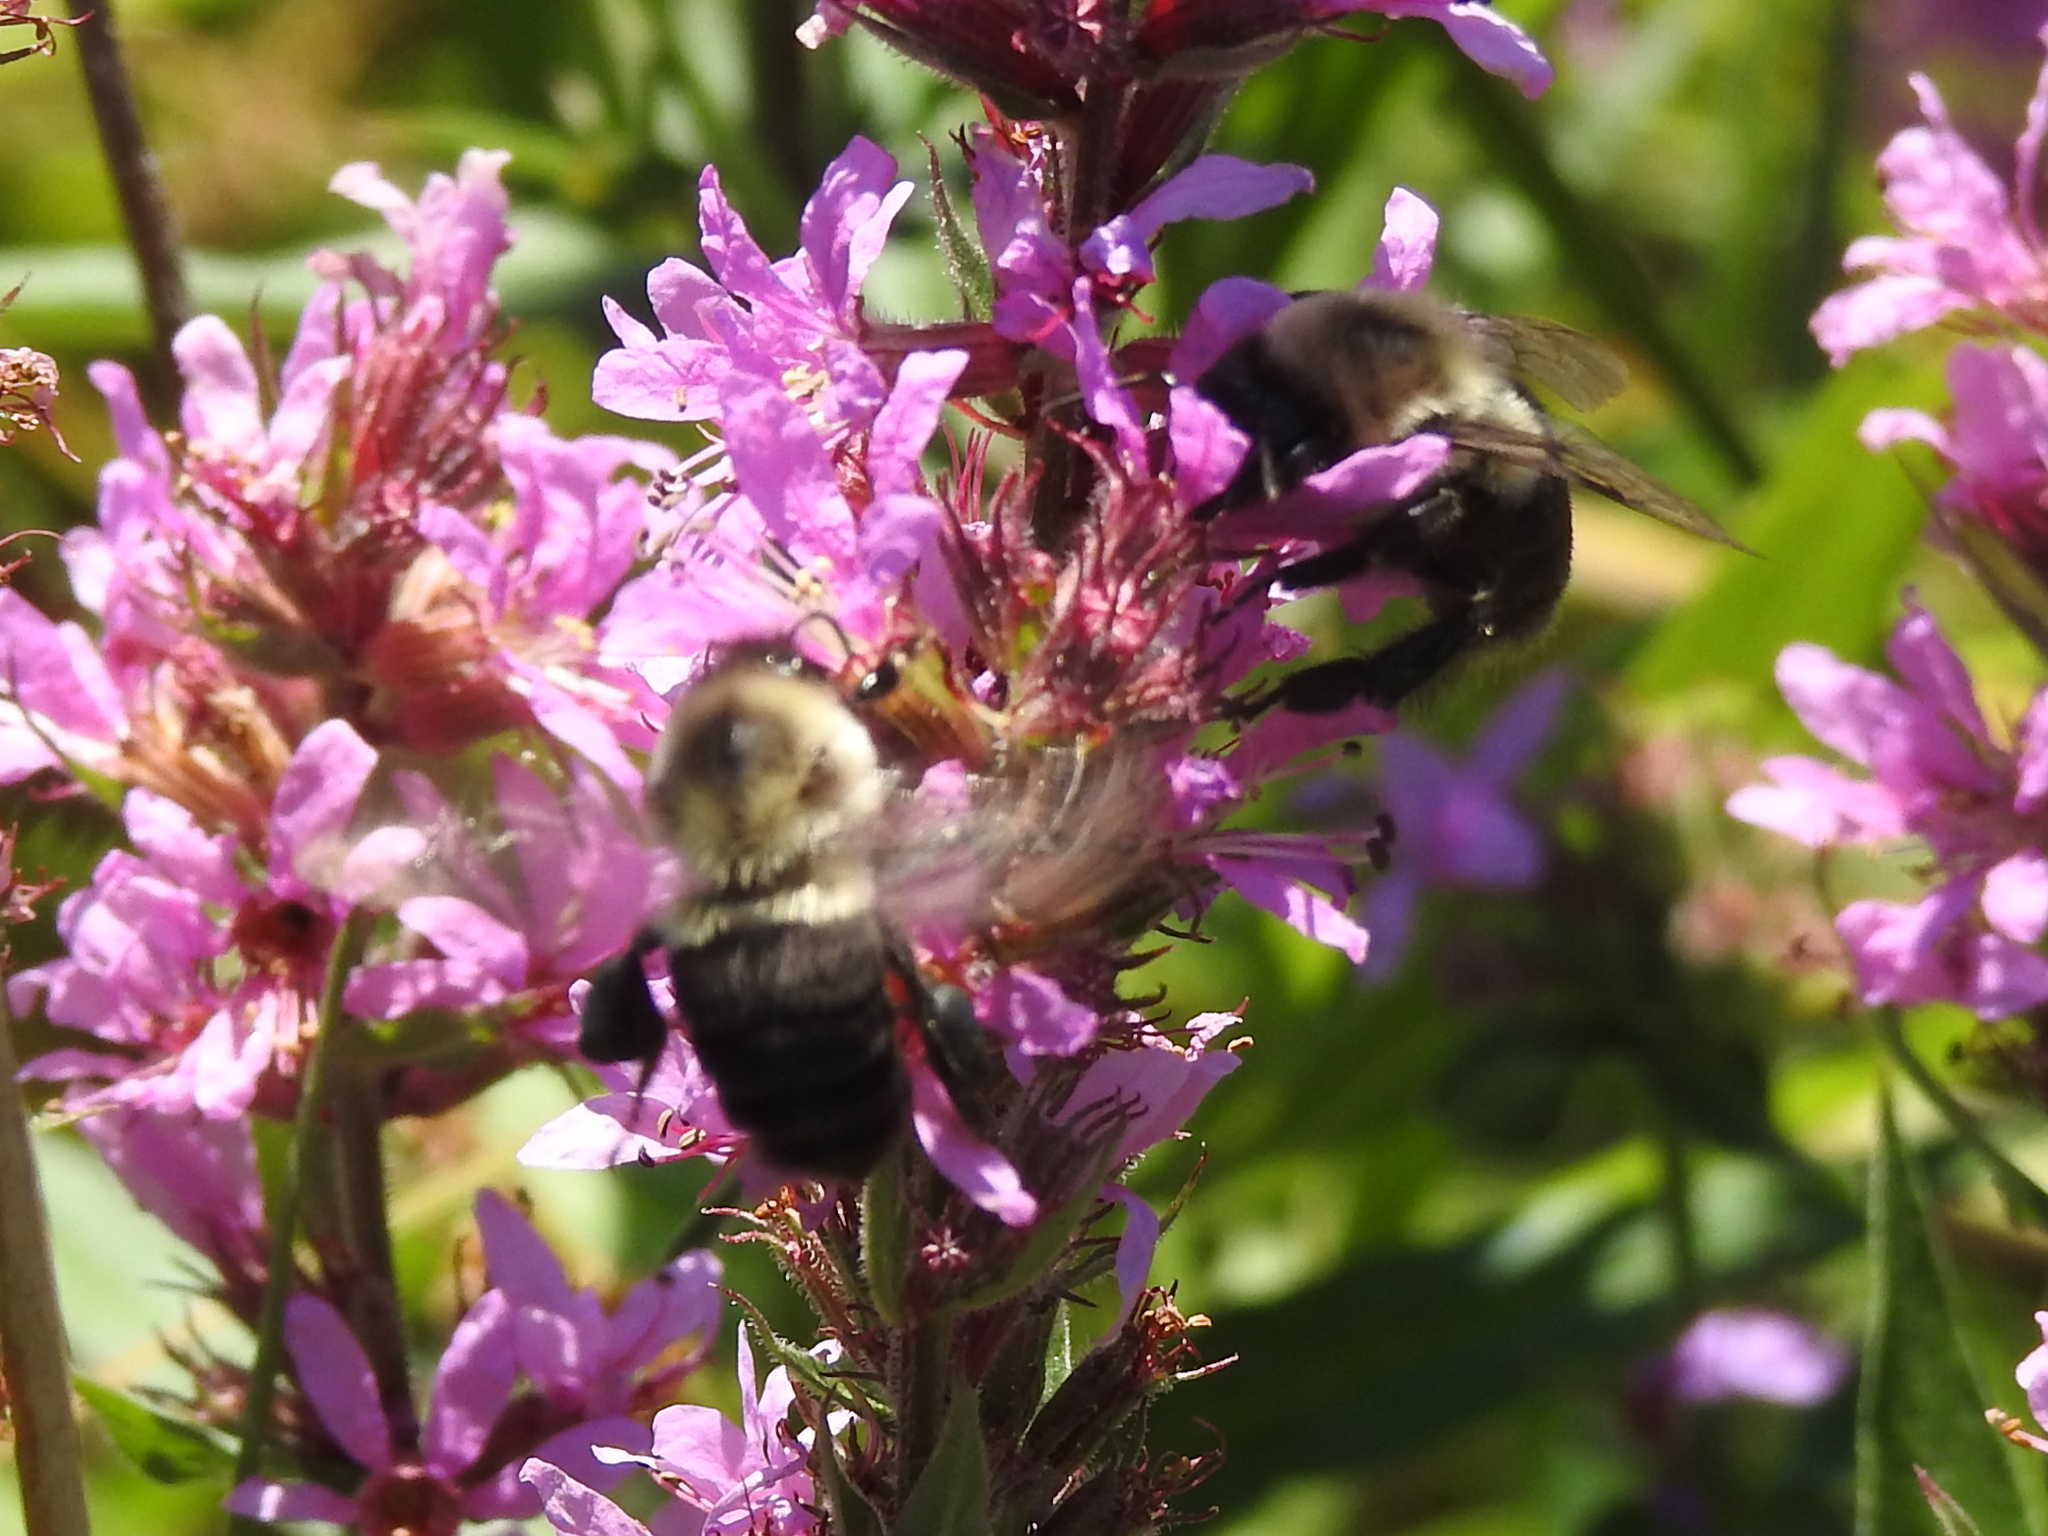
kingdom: Animalia
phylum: Arthropoda
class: Insecta
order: Hymenoptera
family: Apidae
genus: Bombus
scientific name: Bombus impatiens
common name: Common eastern bumble bee
